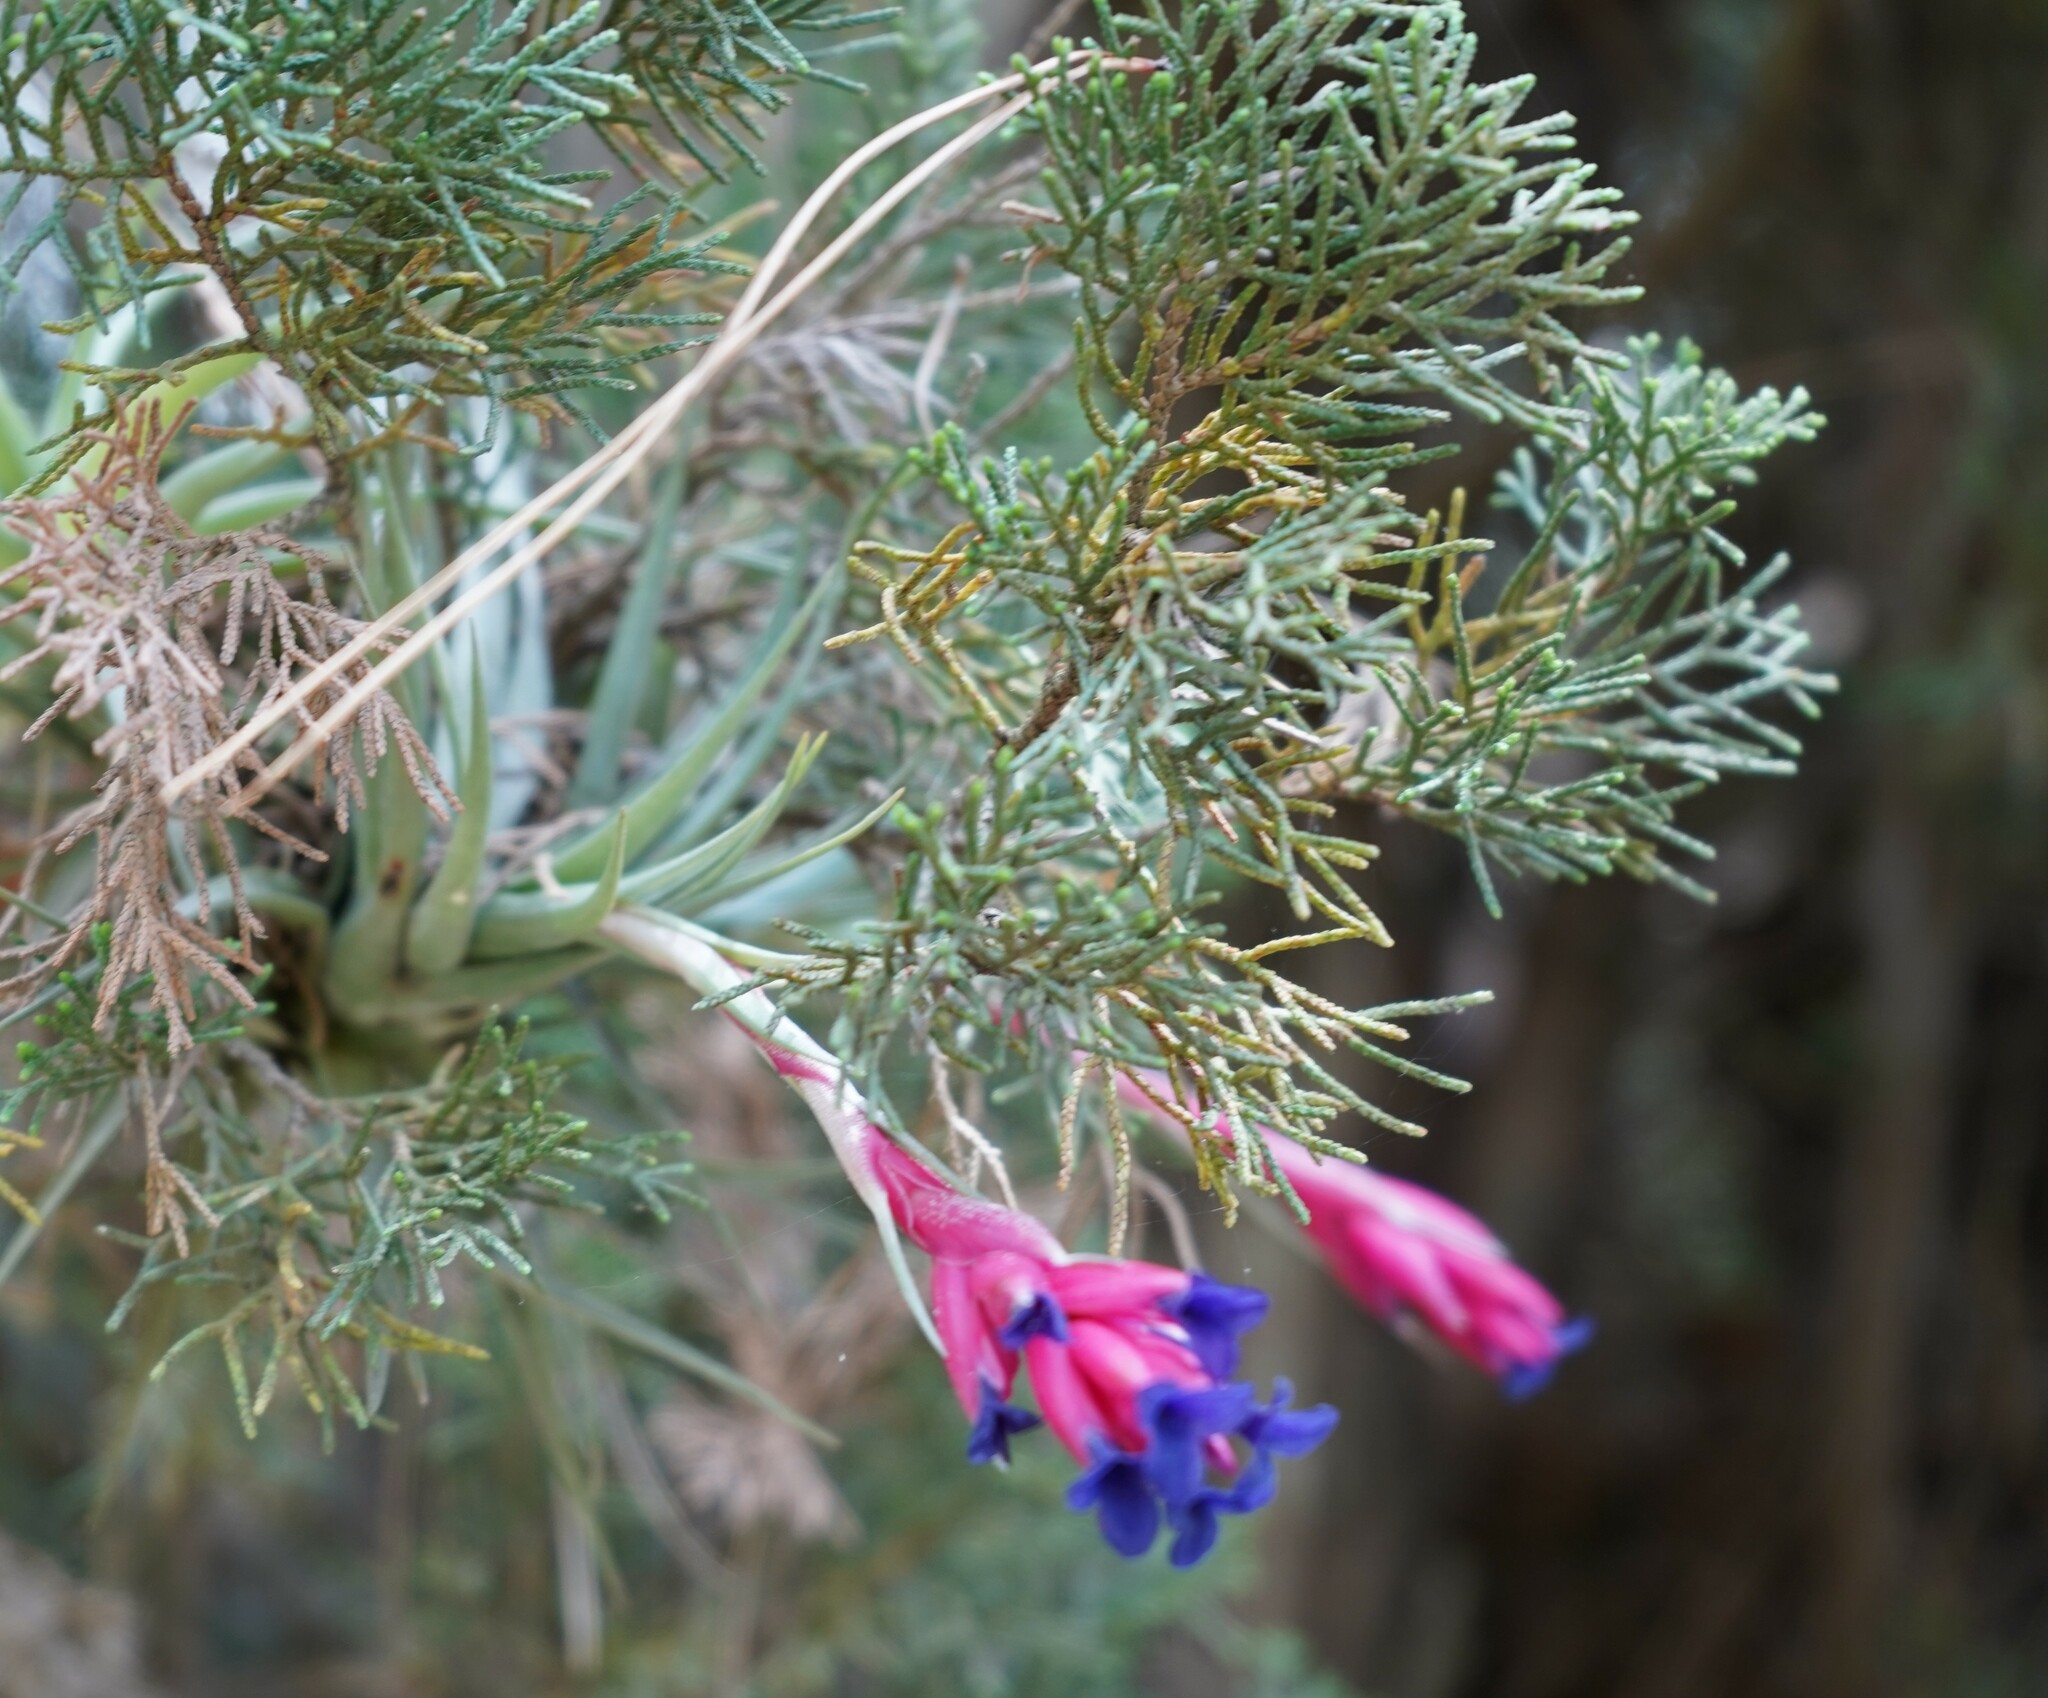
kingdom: Plantae
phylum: Tracheophyta
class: Liliopsida
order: Poales
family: Bromeliaceae
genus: Tillandsia
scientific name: Tillandsia aeranthos
